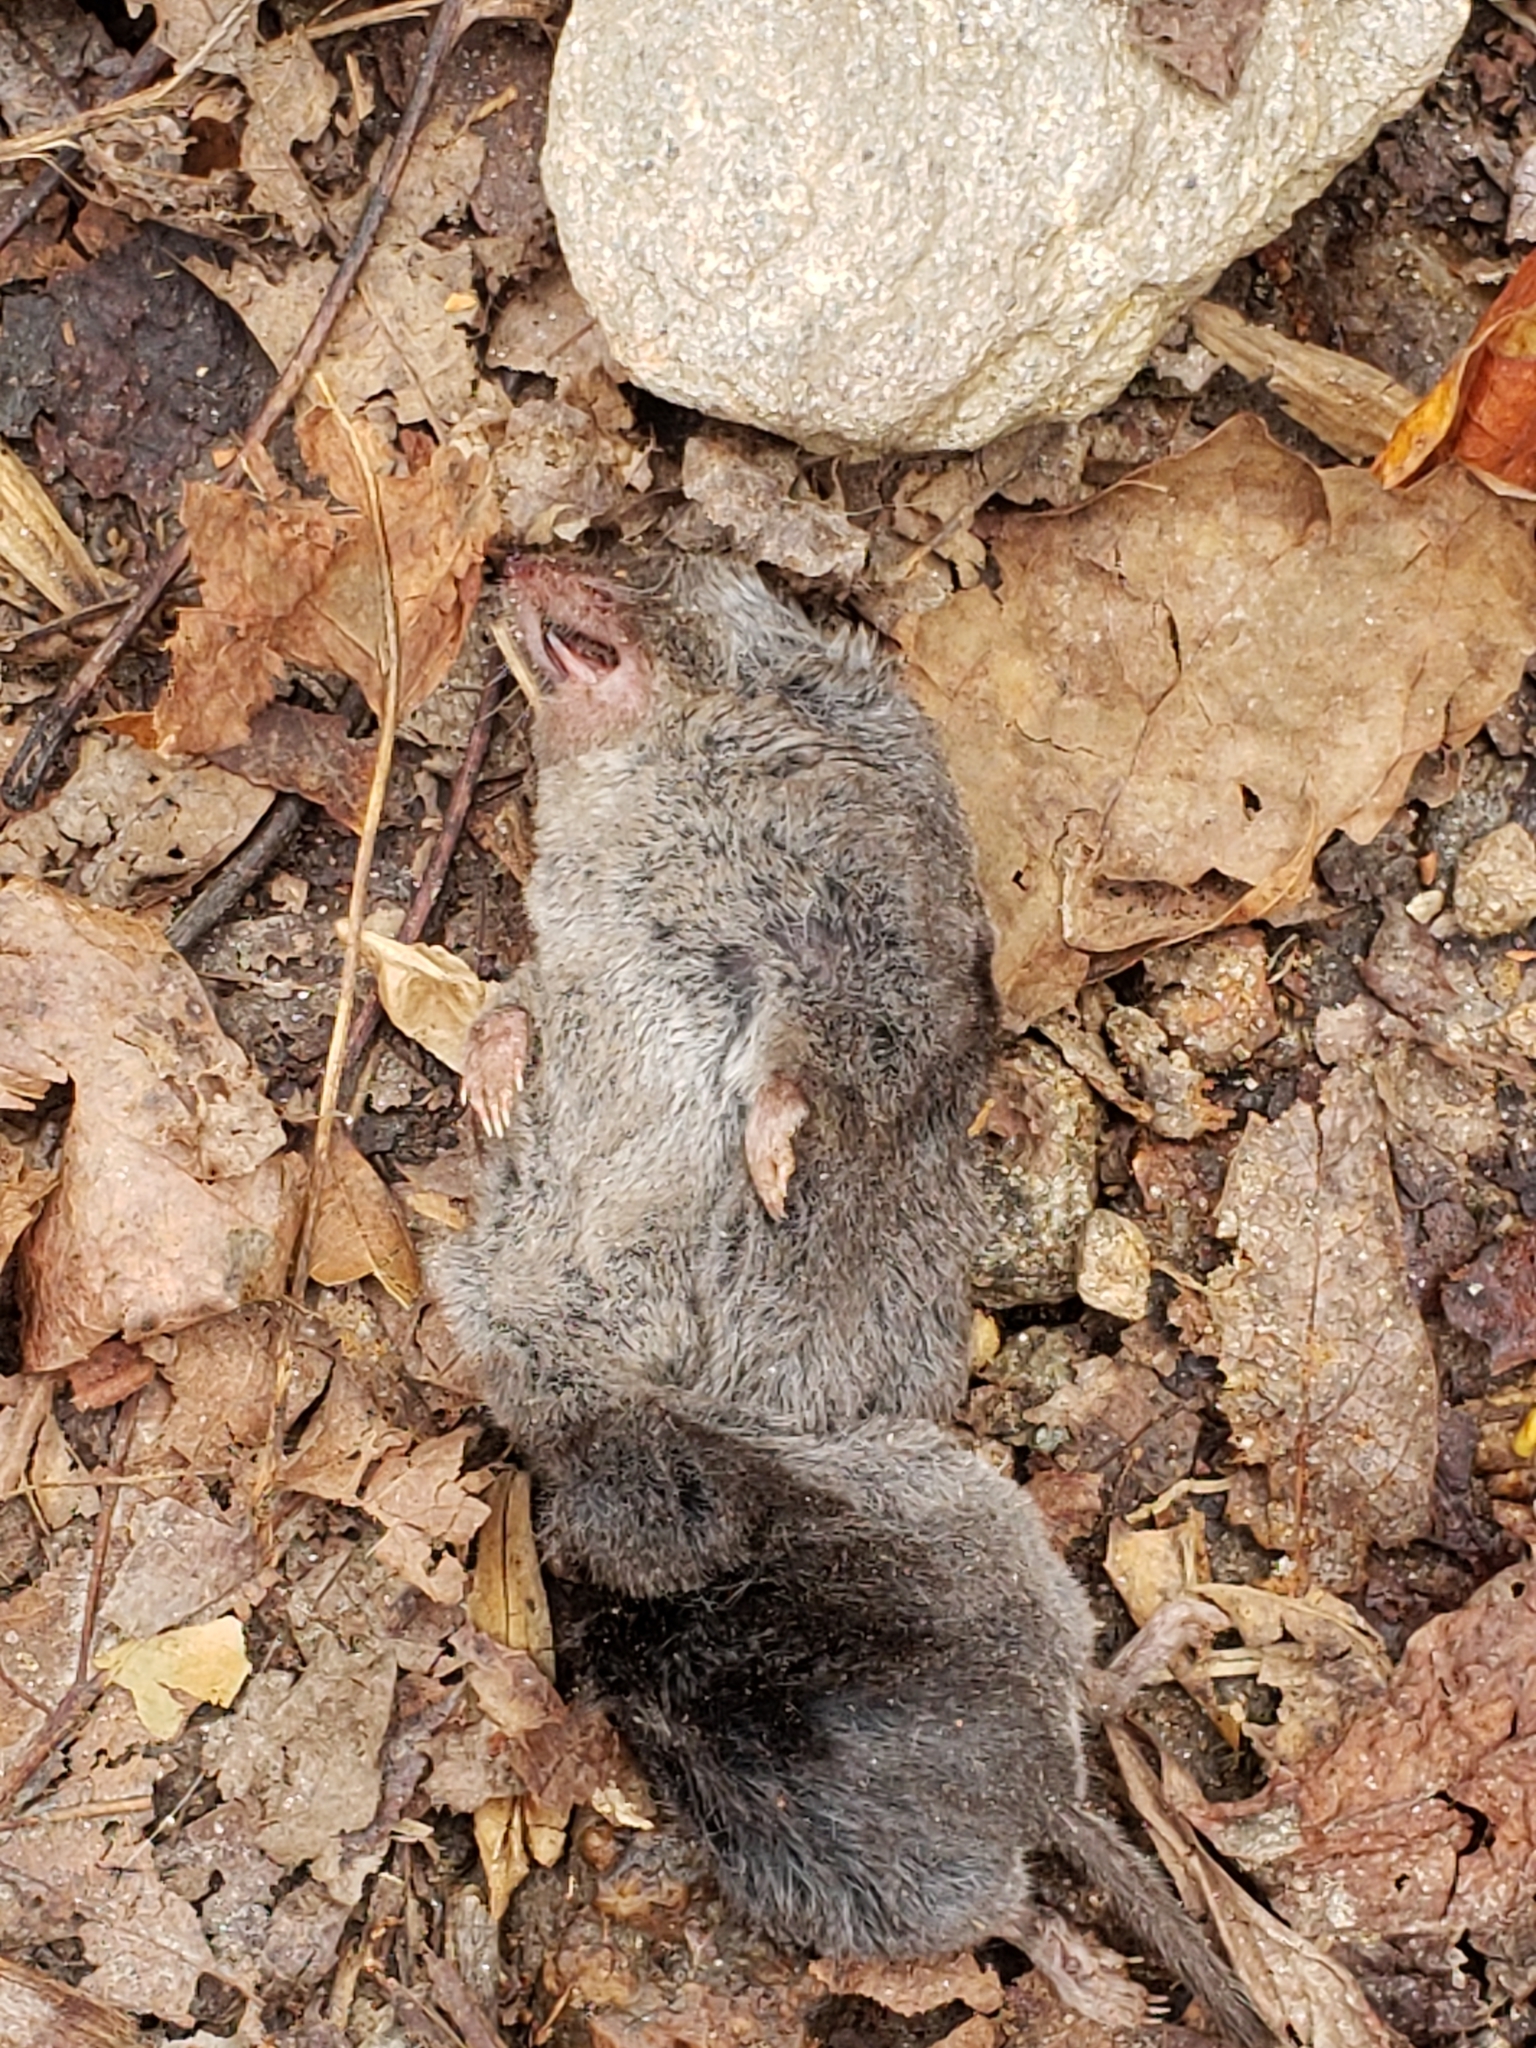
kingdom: Animalia
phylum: Chordata
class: Mammalia
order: Soricomorpha
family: Soricidae
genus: Blarina
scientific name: Blarina brevicauda
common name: Northern short-tailed shrew
